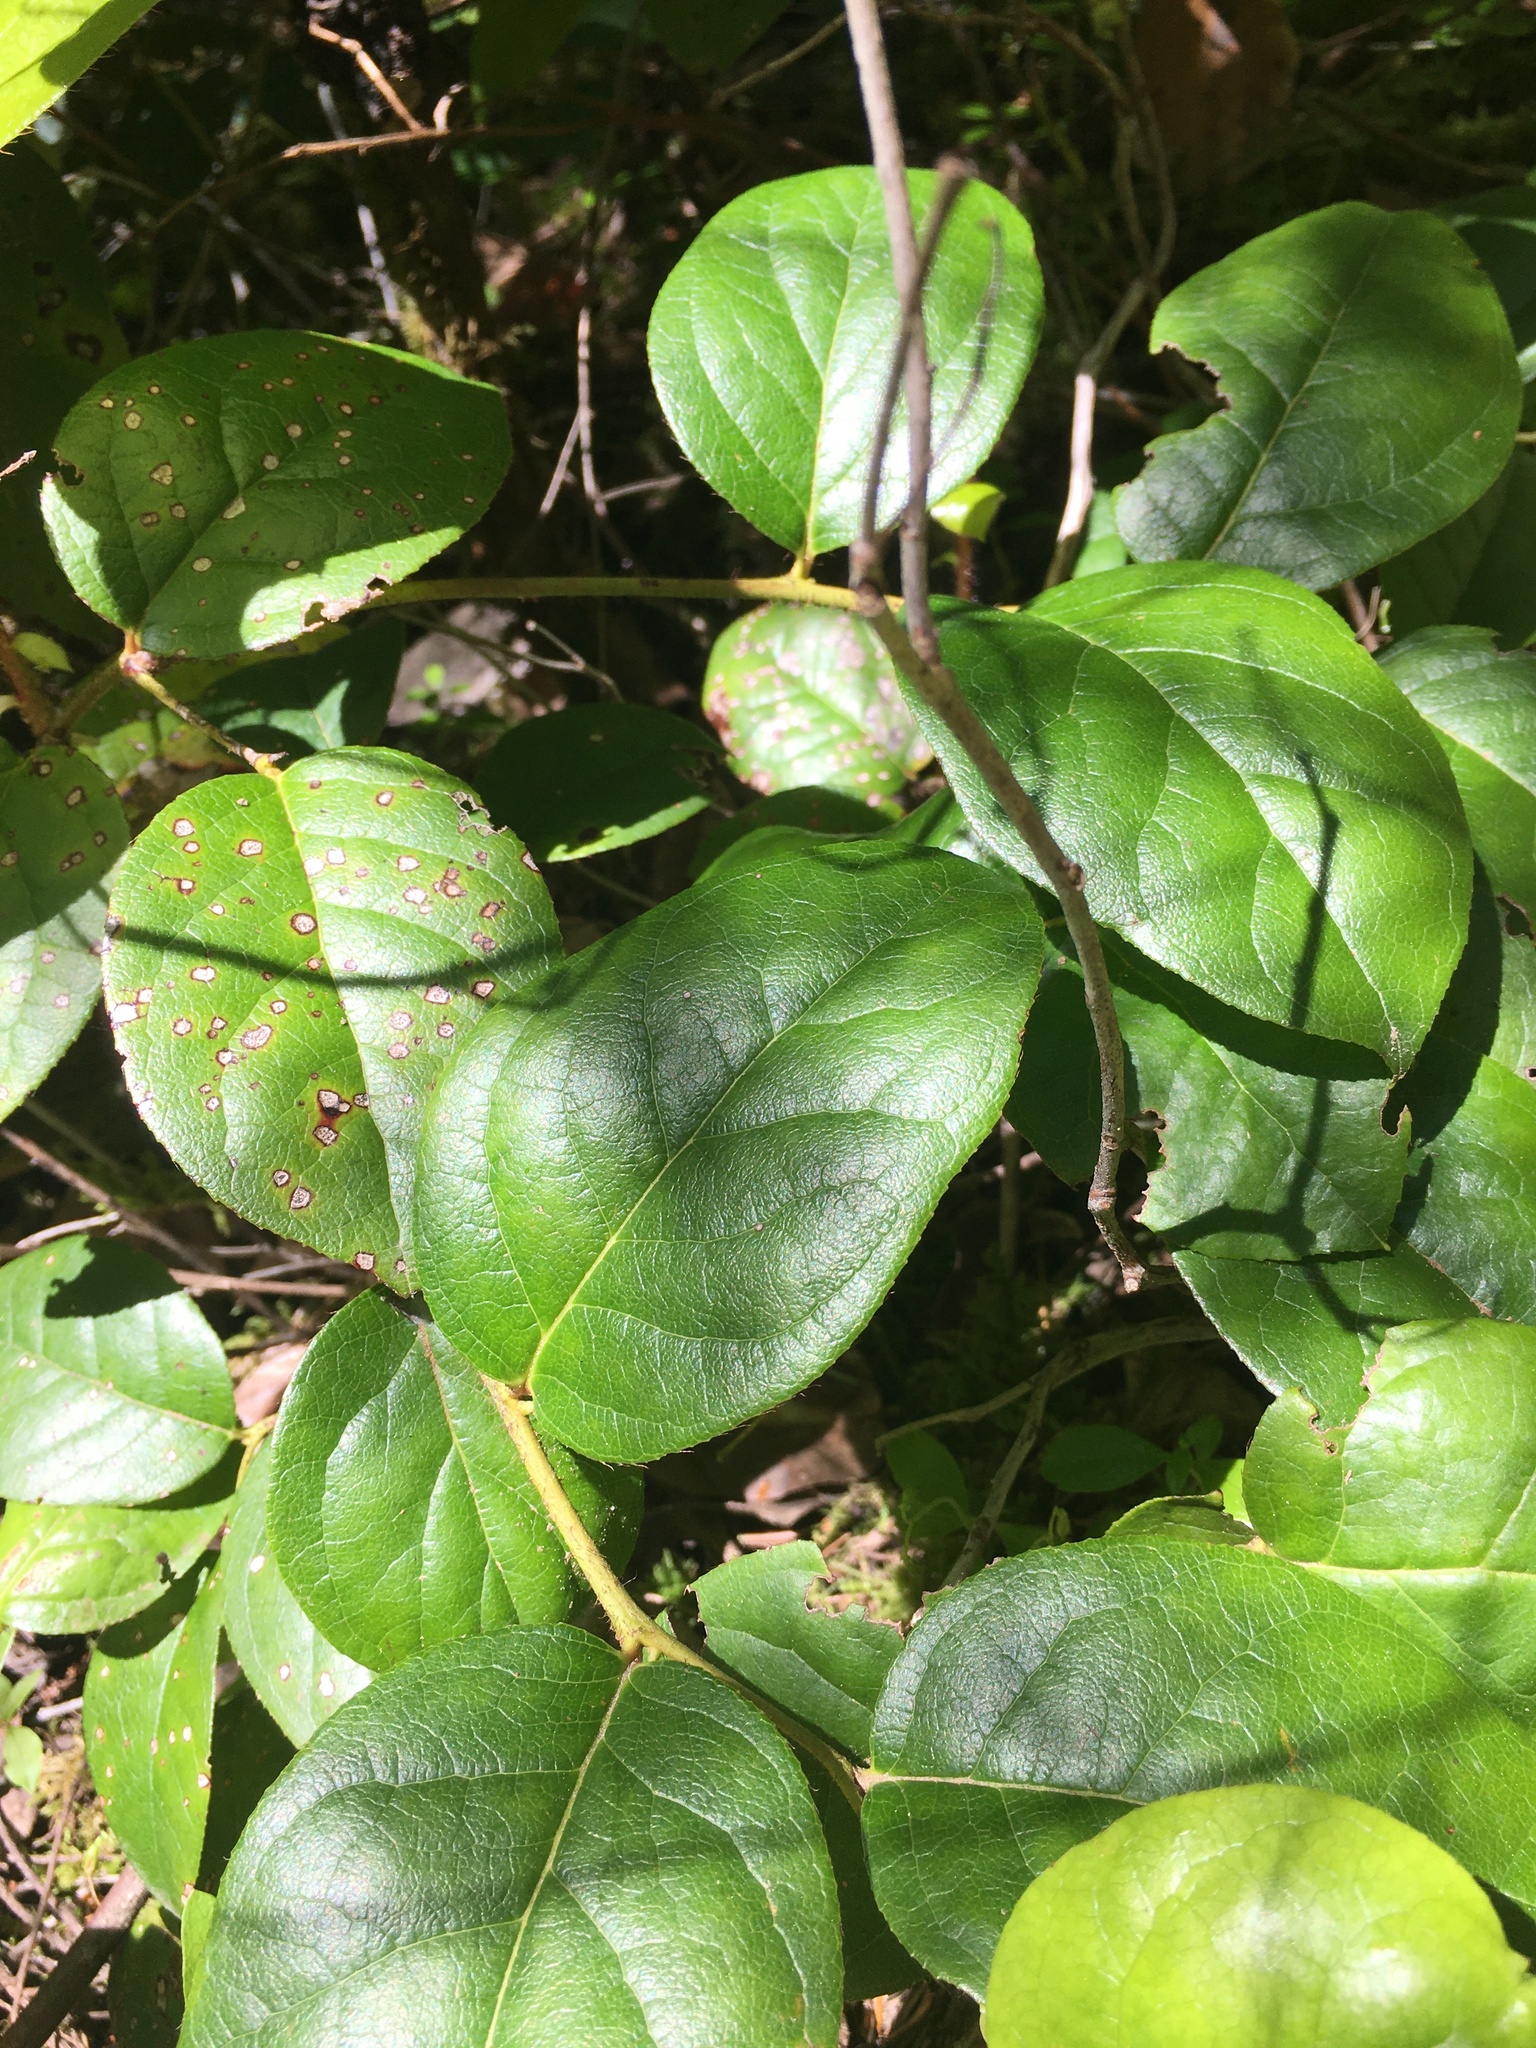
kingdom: Plantae
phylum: Tracheophyta
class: Magnoliopsida
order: Ericales
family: Ericaceae
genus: Gaultheria
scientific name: Gaultheria shallon
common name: Shallon
